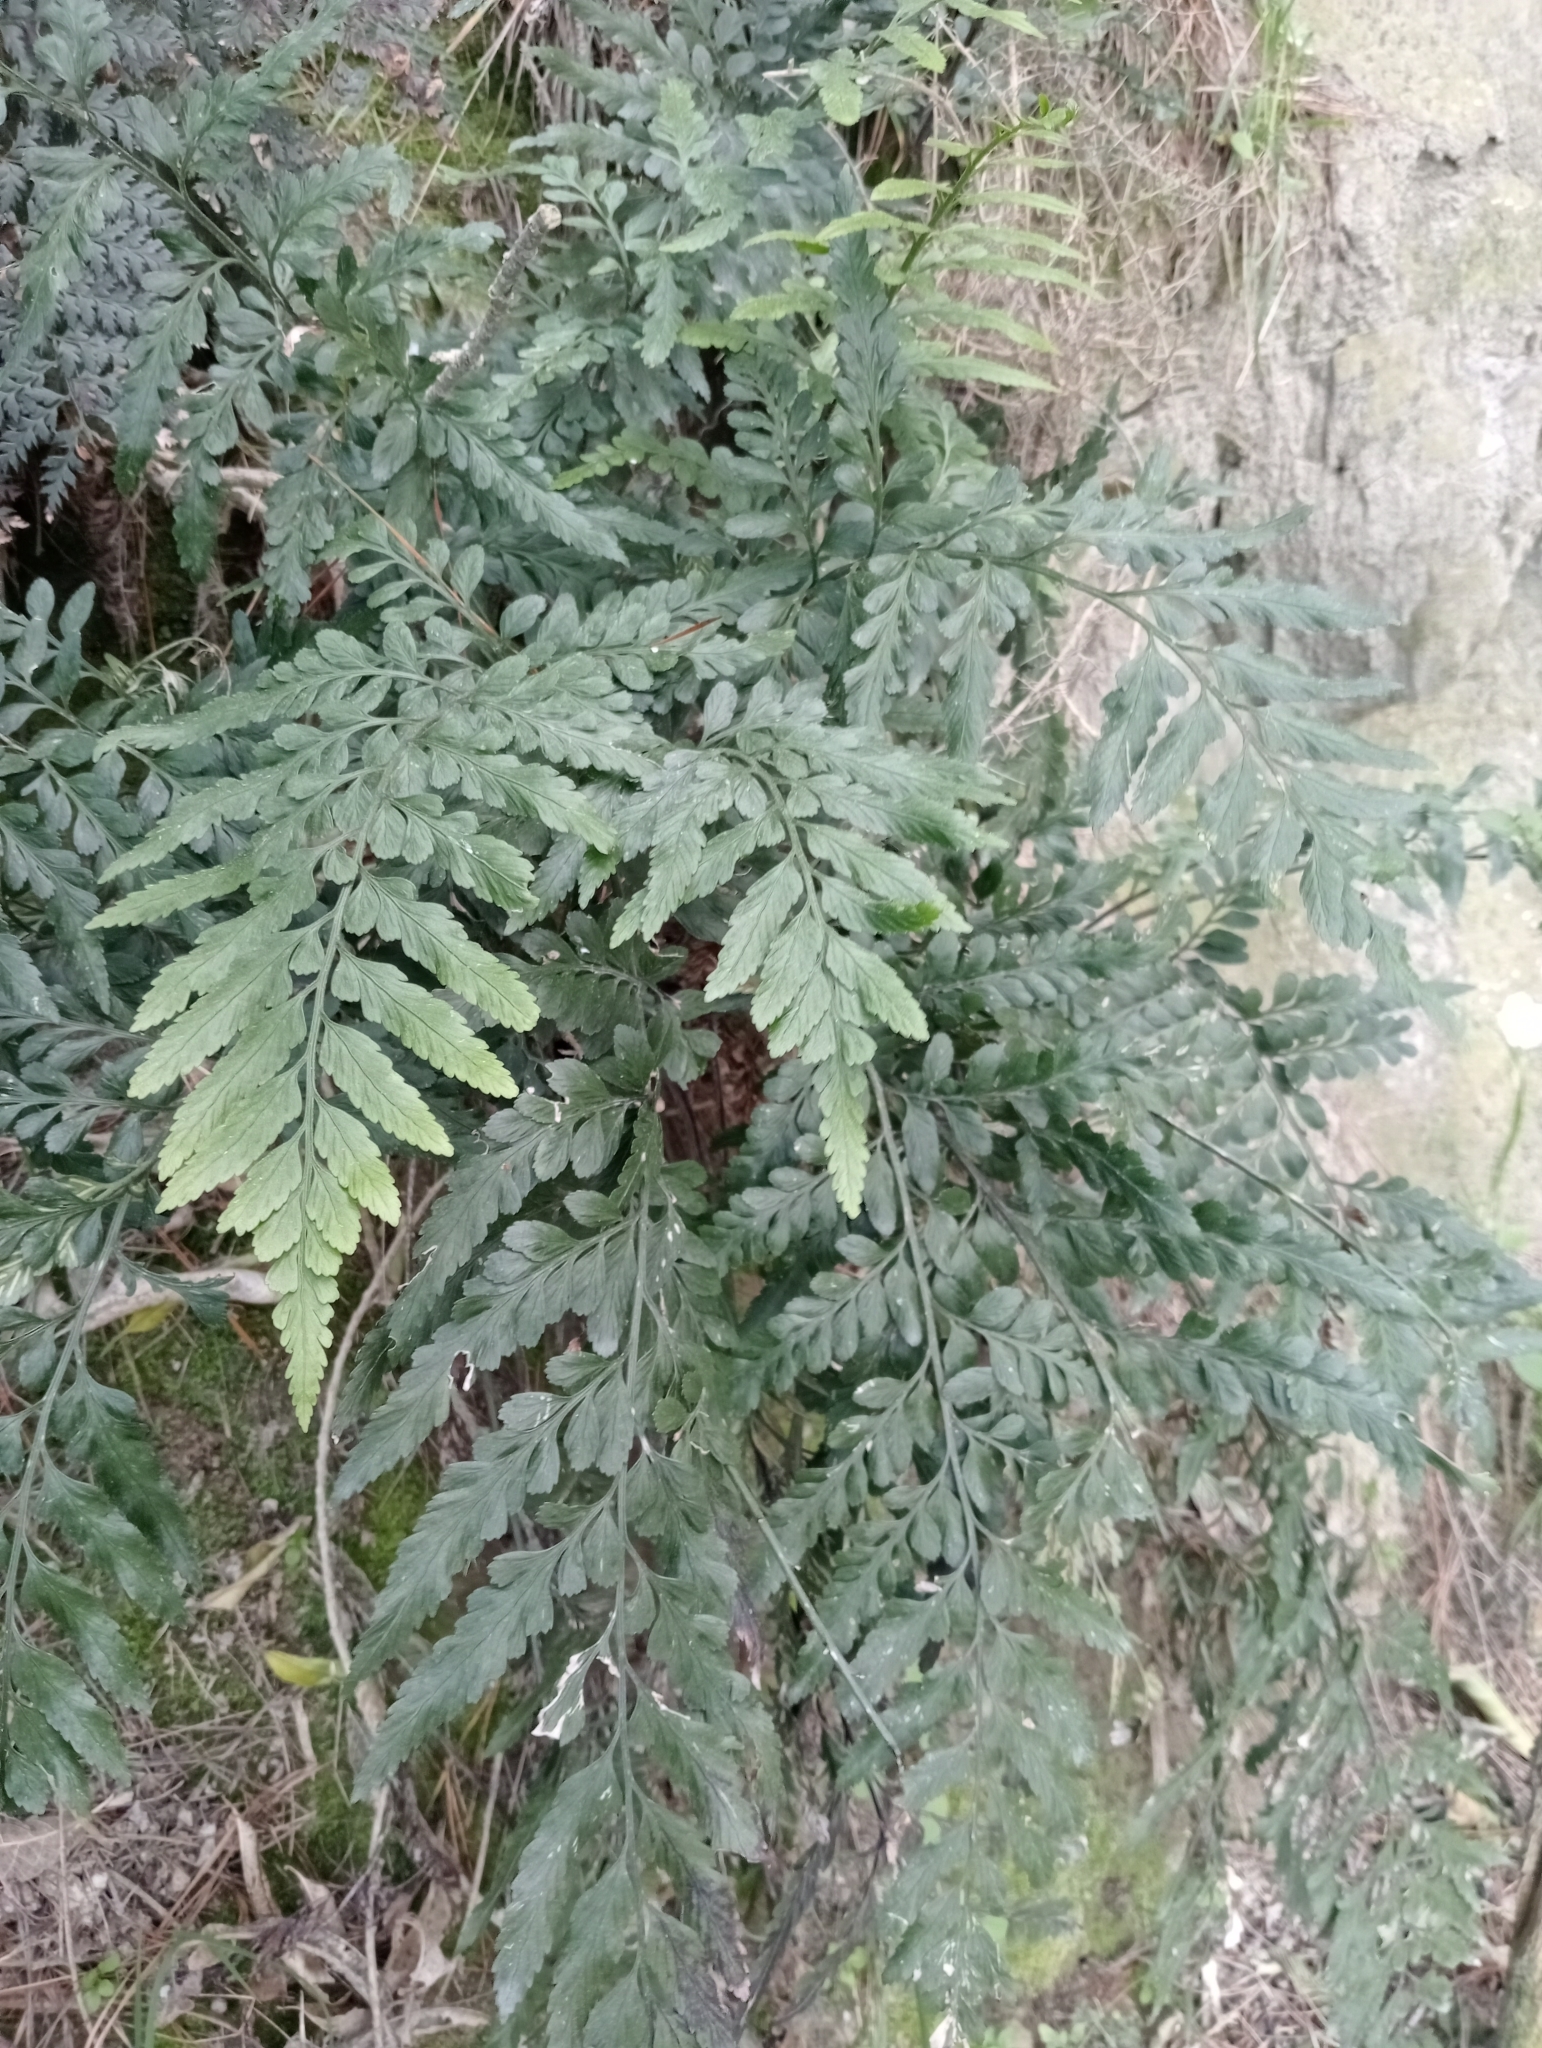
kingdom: Plantae
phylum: Tracheophyta
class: Polypodiopsida
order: Polypodiales
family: Aspleniaceae
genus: Asplenium
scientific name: Asplenium lyallii
